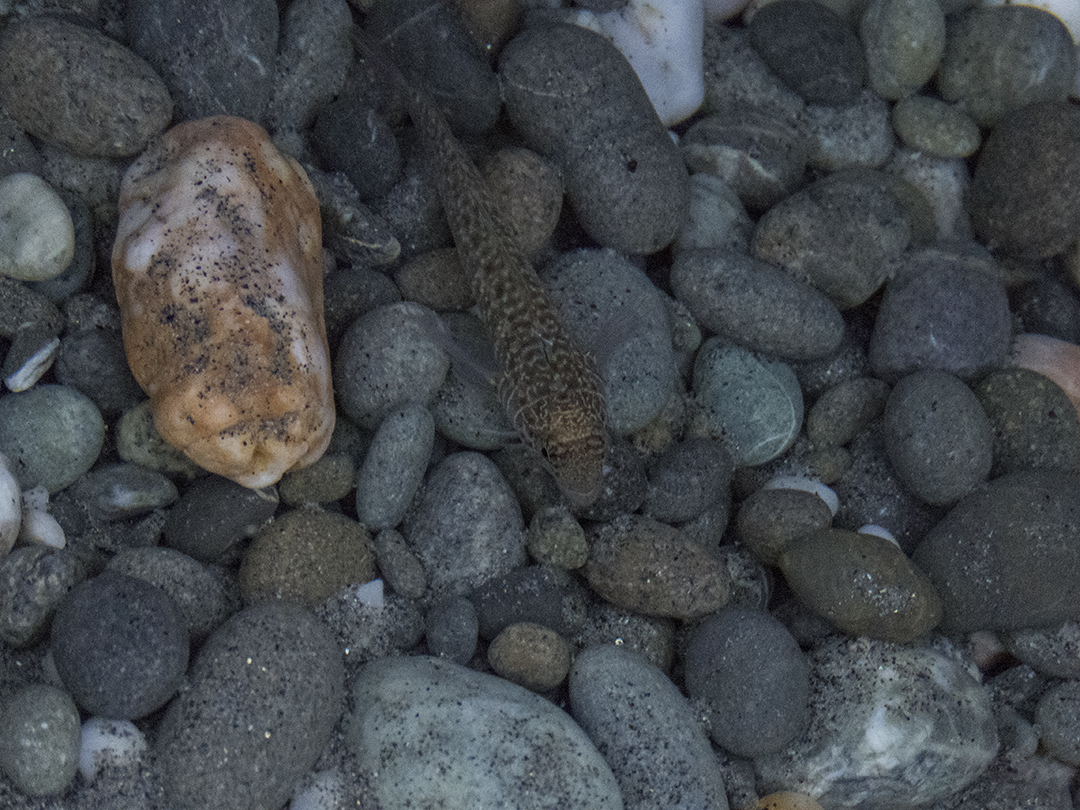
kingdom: Animalia
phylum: Chordata
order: Perciformes
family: Tripterygiidae
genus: Ruanoho
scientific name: Ruanoho decemdigitatus
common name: Longfinned triplefin
